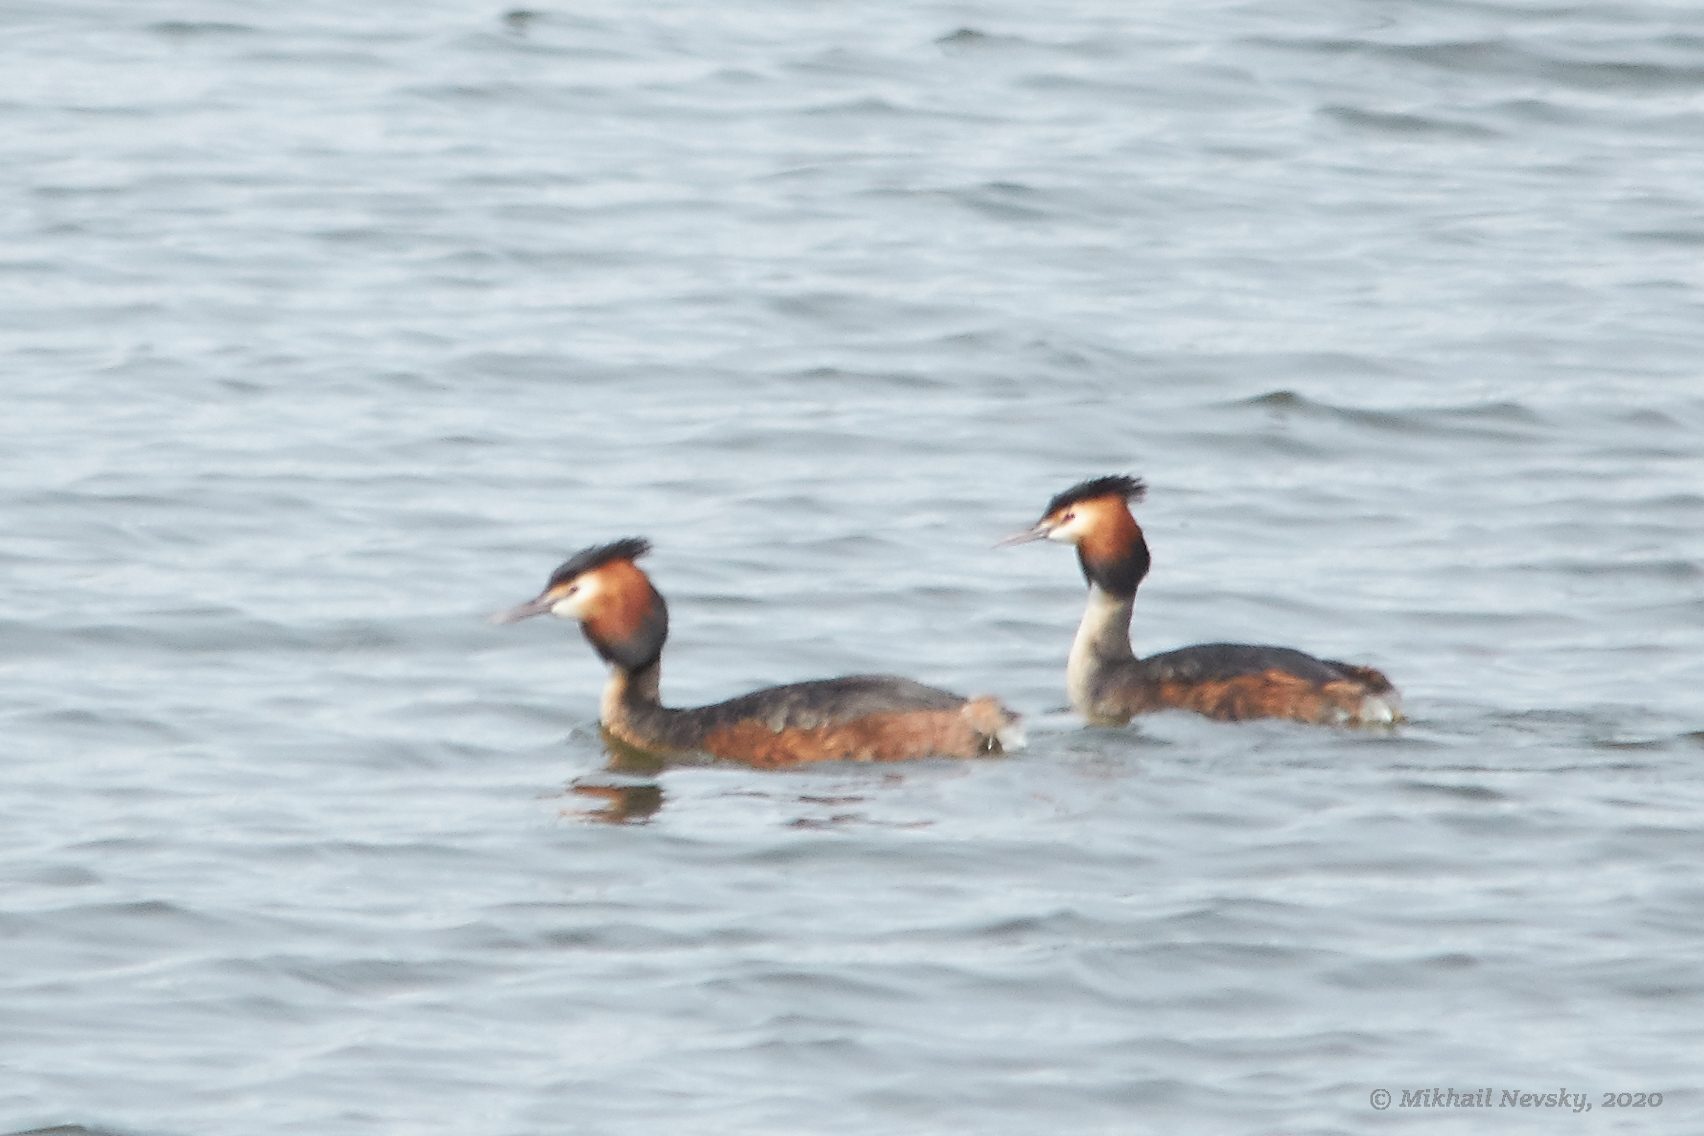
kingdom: Animalia
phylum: Chordata
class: Aves
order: Podicipediformes
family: Podicipedidae
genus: Podiceps
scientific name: Podiceps cristatus
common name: Great crested grebe
